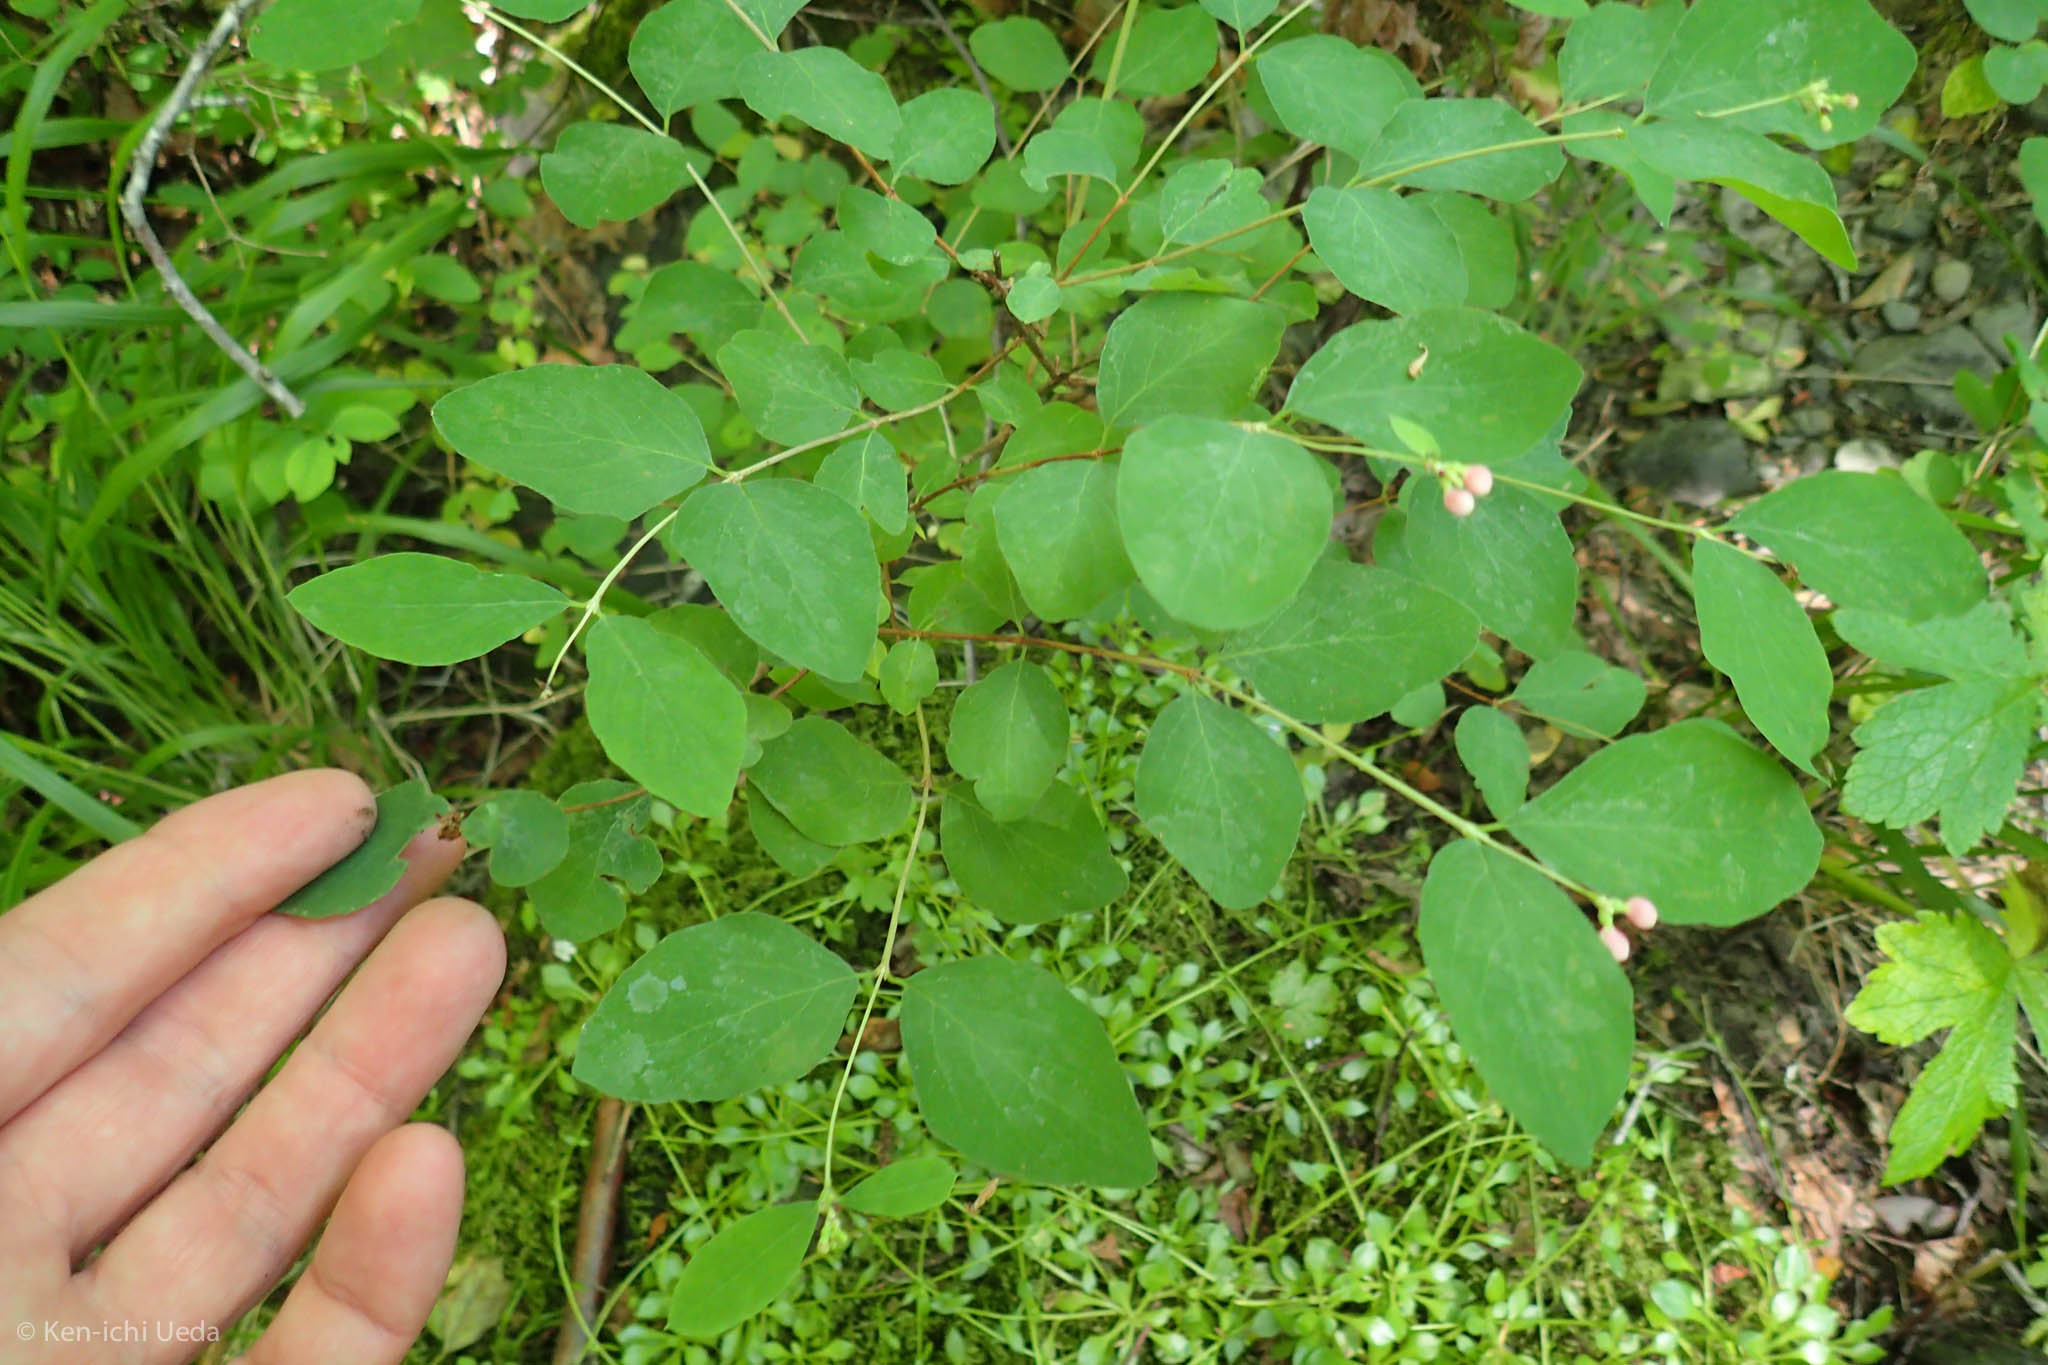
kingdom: Plantae
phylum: Tracheophyta
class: Magnoliopsida
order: Dipsacales
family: Caprifoliaceae
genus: Symphoricarpos
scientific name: Symphoricarpos albus
